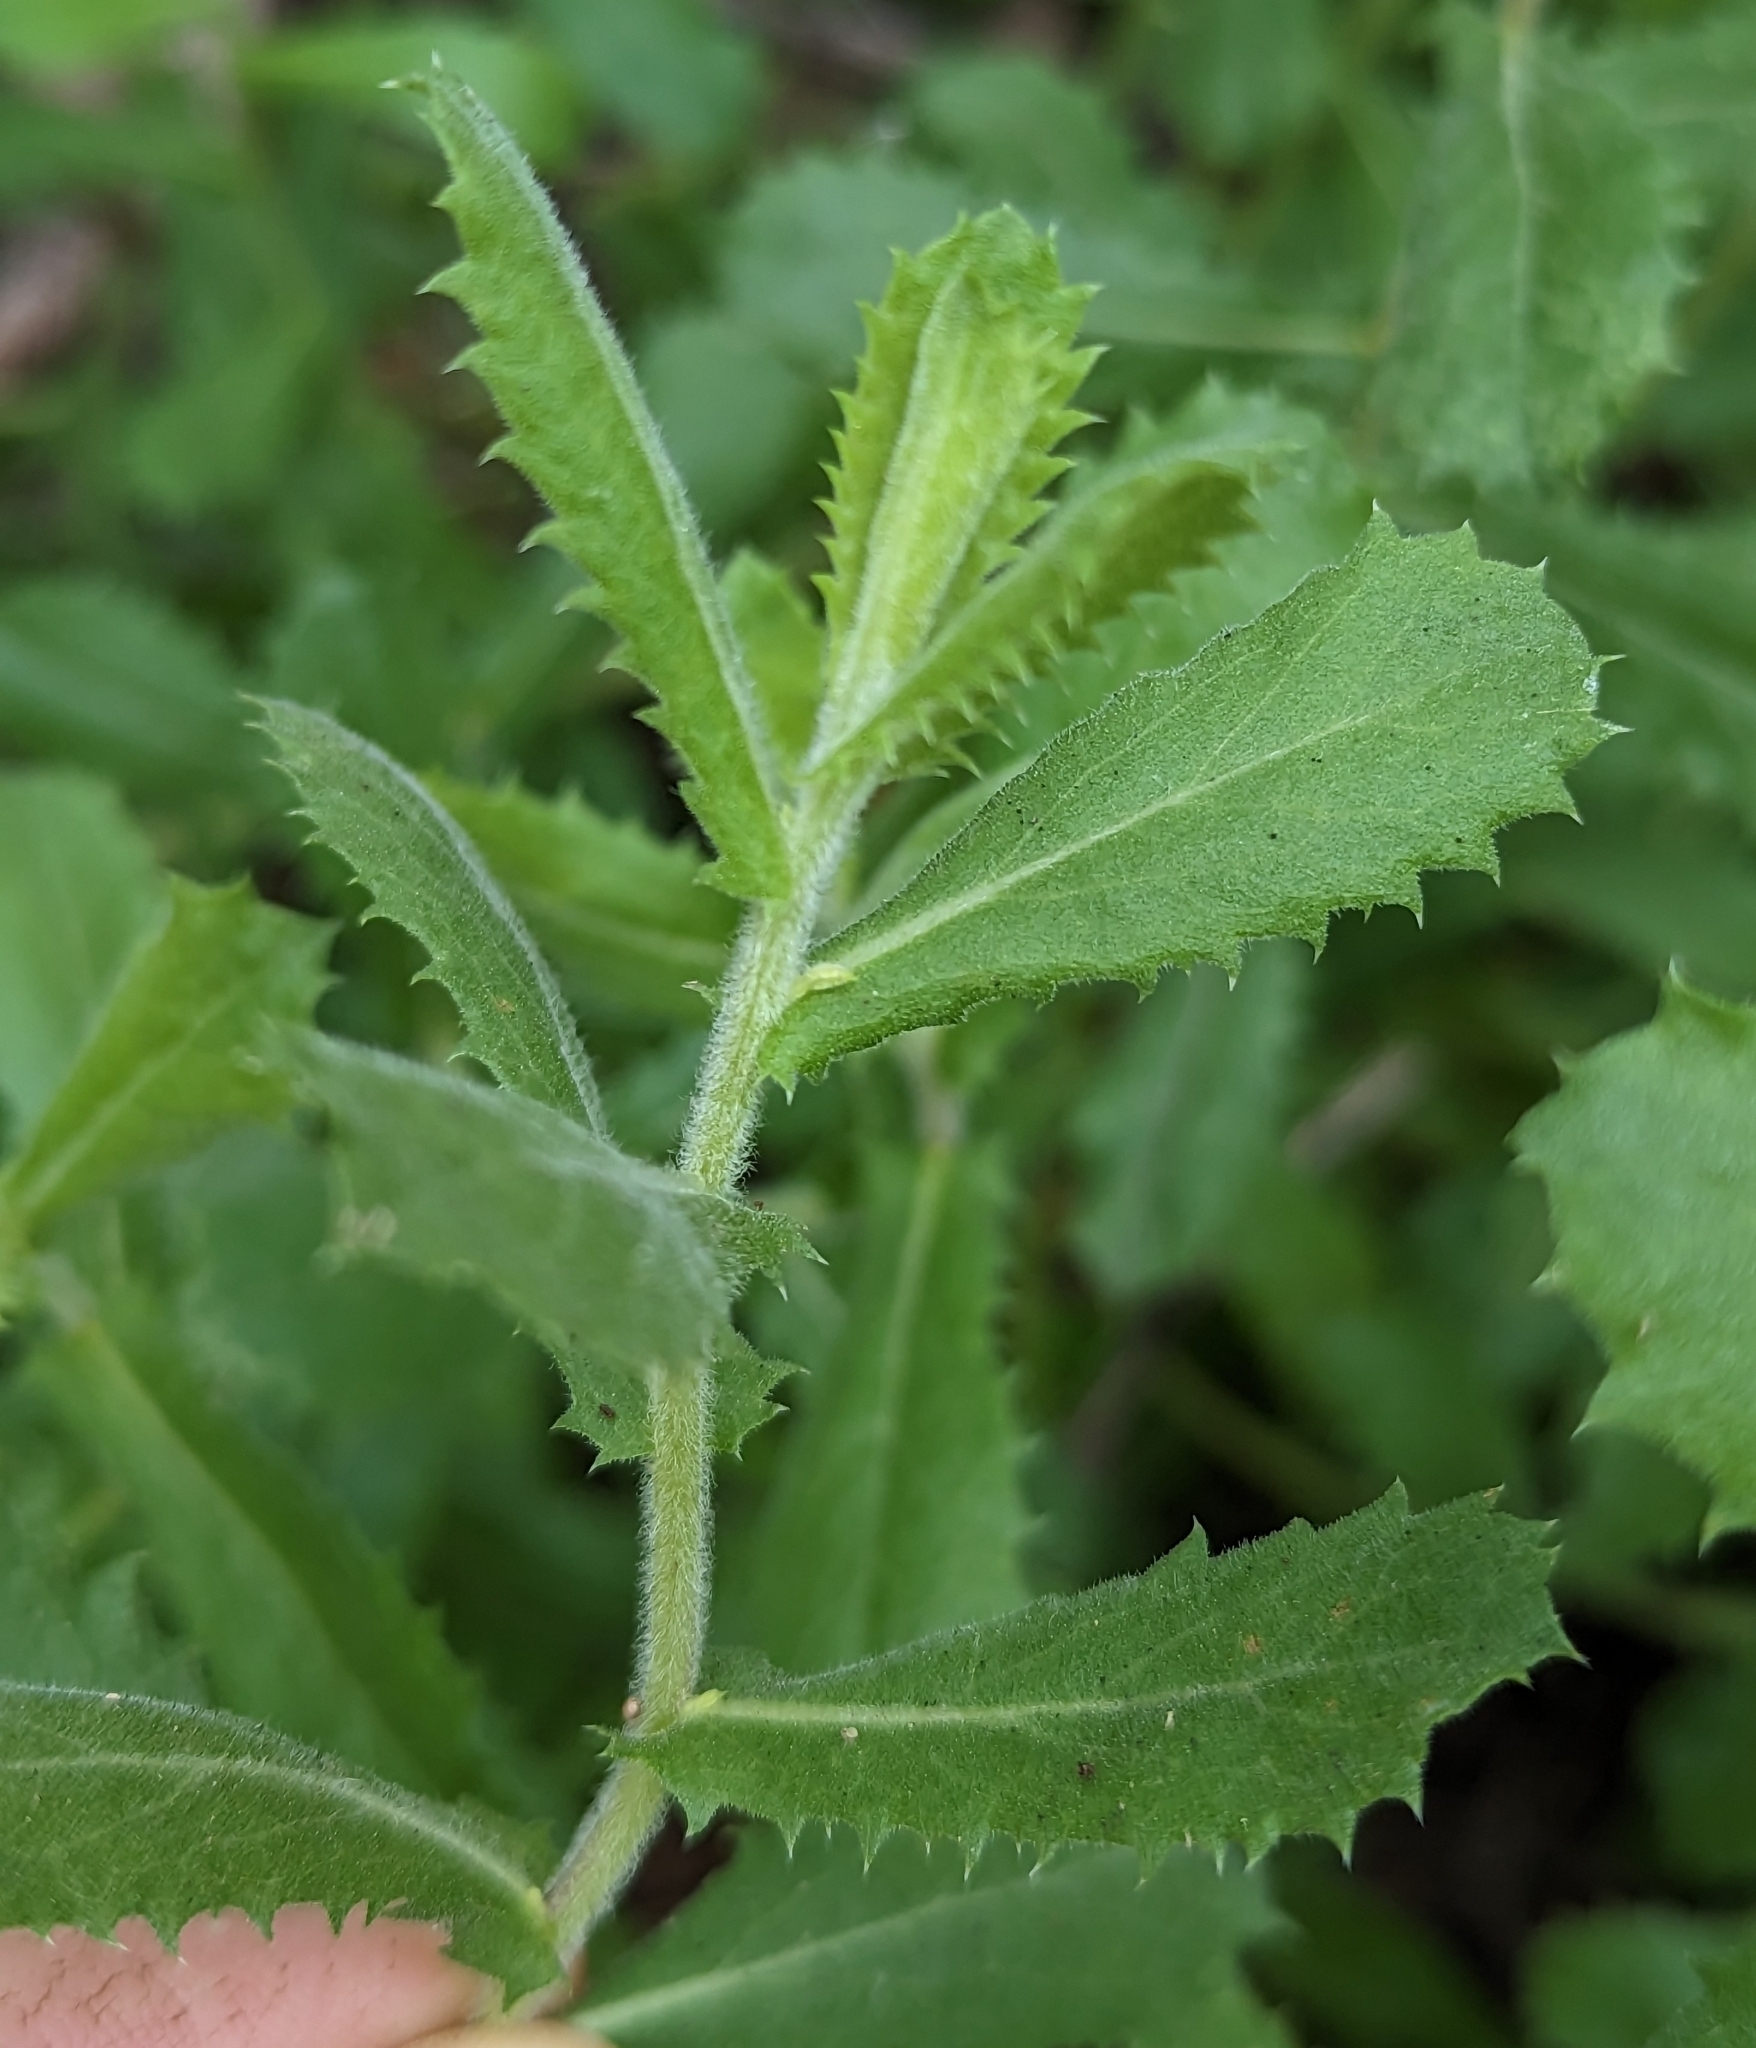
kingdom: Plantae
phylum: Tracheophyta
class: Magnoliopsida
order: Asterales
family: Asteraceae
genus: Hazardia
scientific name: Hazardia squarrosa
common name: Saw-tooth goldenbush
